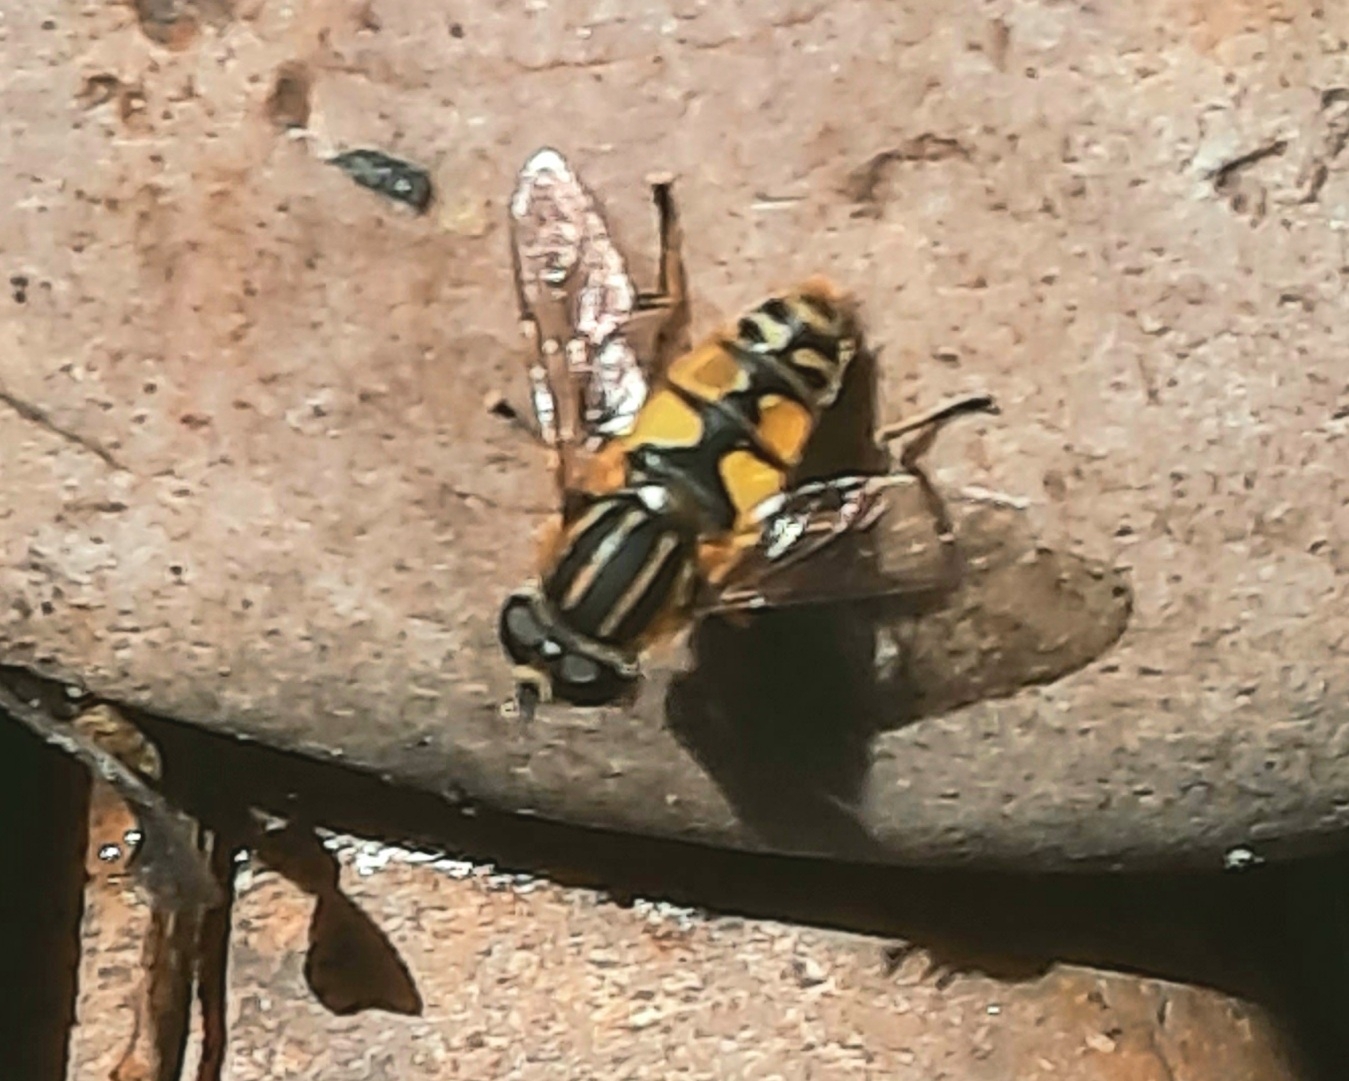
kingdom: Animalia
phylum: Arthropoda
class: Insecta
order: Diptera
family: Syrphidae
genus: Helophilus
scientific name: Helophilus pendulus
